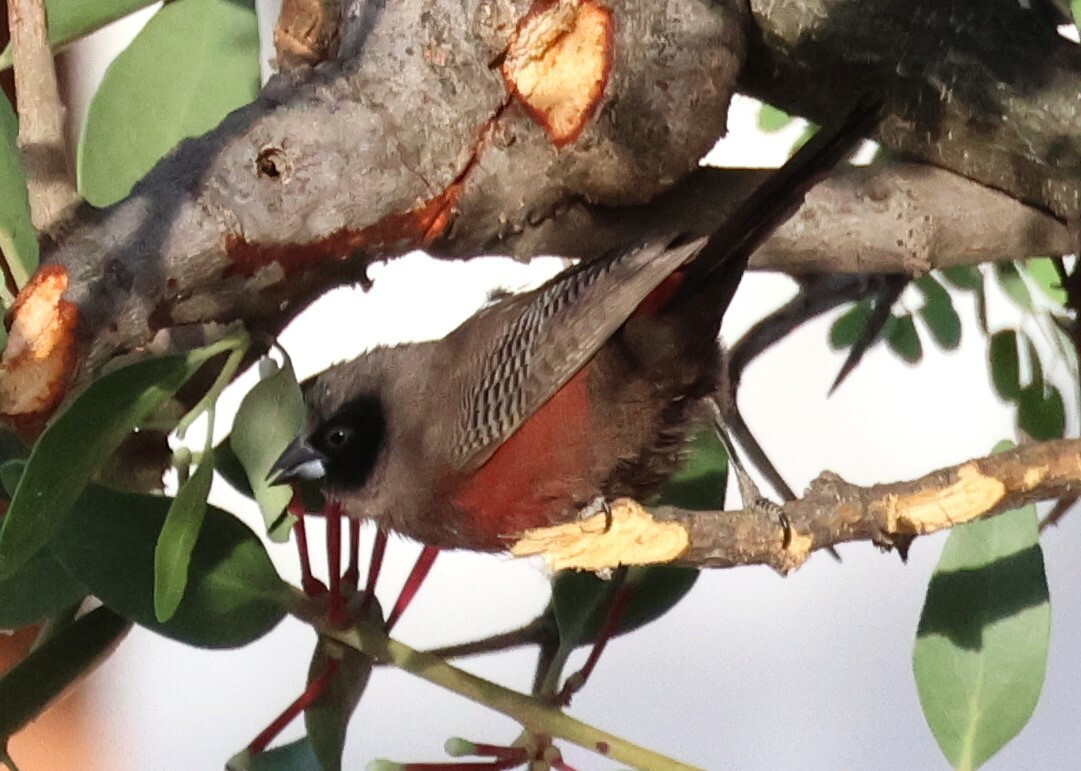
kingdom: Animalia
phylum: Chordata
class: Aves
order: Passeriformes
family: Estrildidae
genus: Estrilda
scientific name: Estrilda erythronotos
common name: Black-faced waxbill
